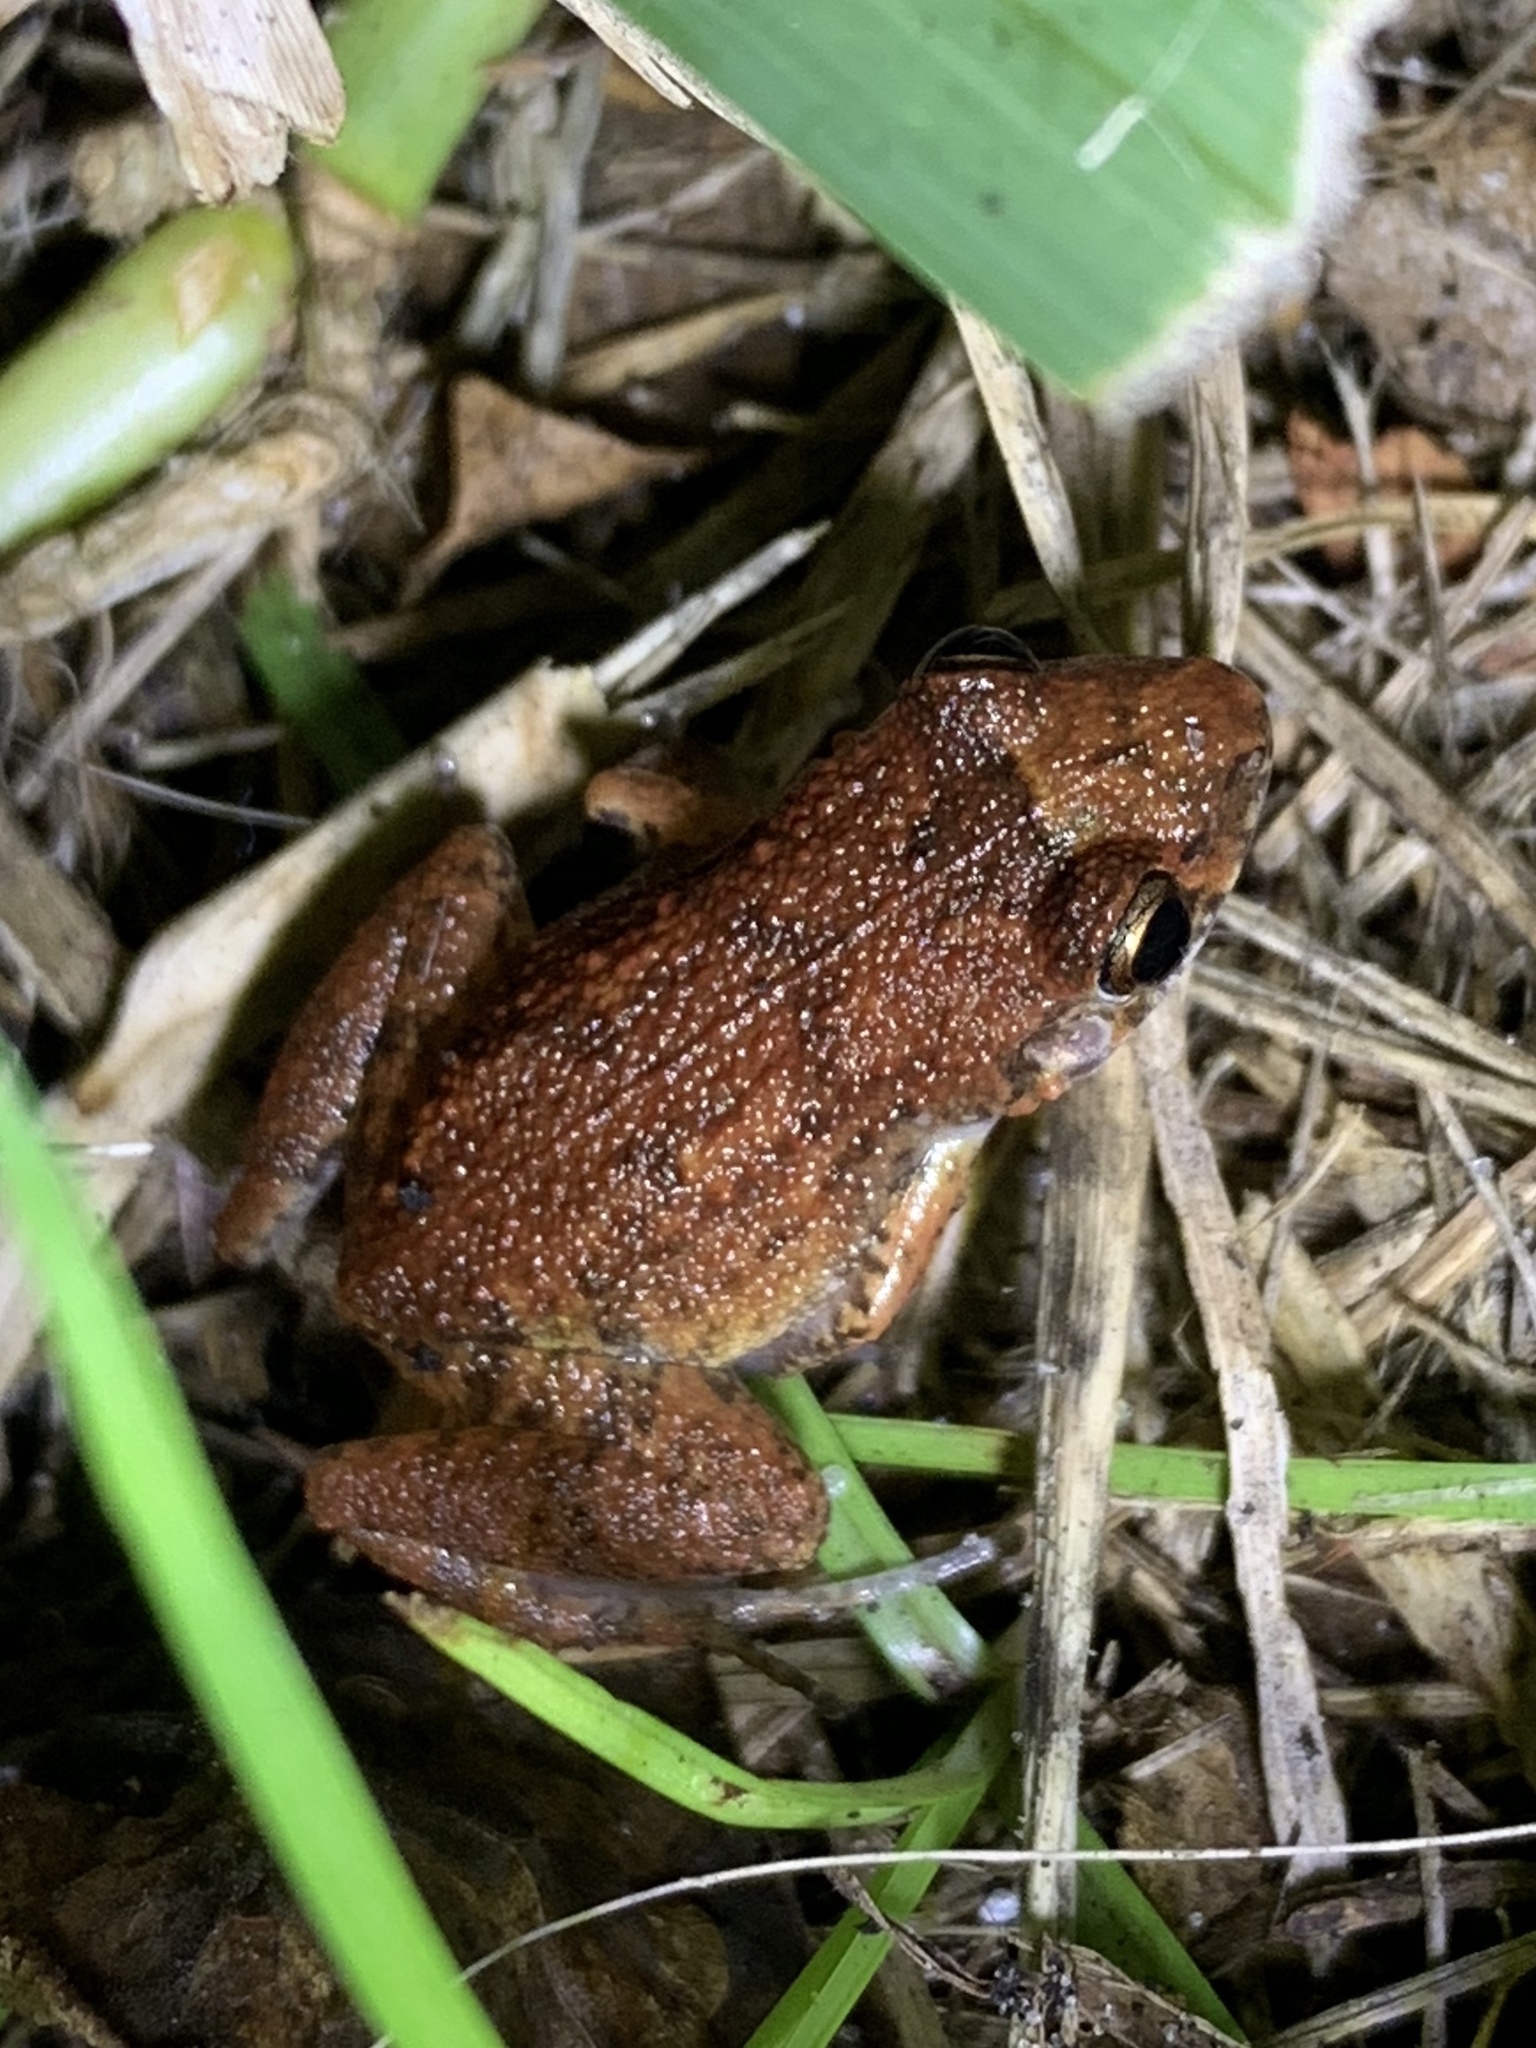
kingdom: Animalia
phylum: Chordata
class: Amphibia
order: Anura
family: Eleutherodactylidae
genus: Eleutherodactylus
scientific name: Eleutherodactylus planirostris
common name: Greenhouse frog
